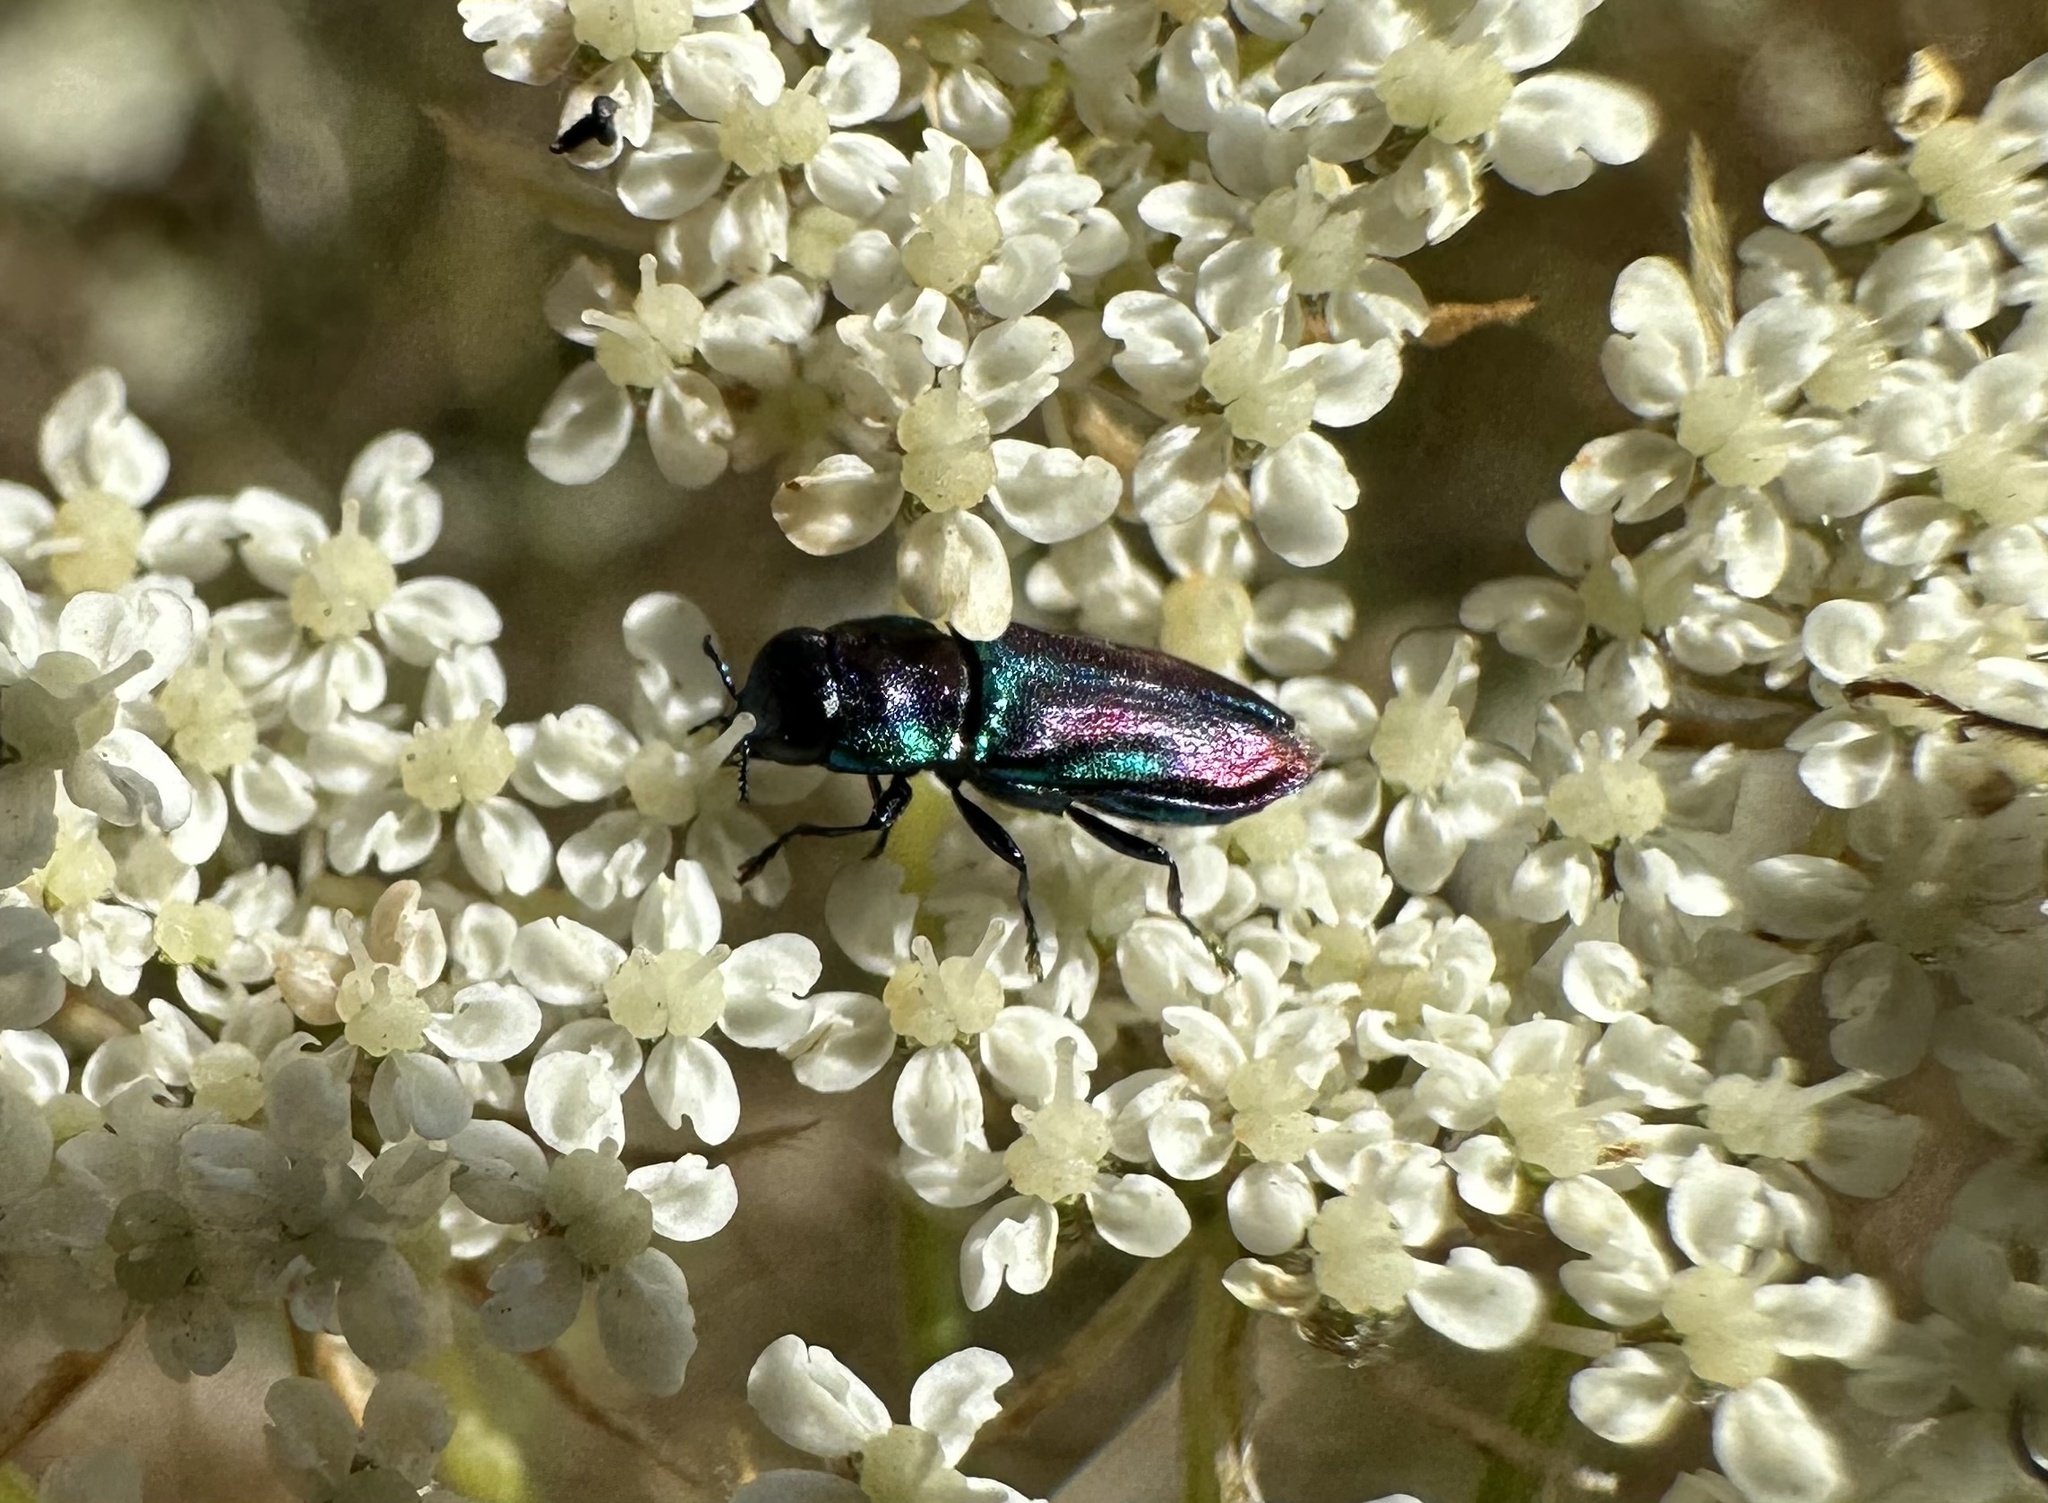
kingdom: Animalia
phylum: Arthropoda
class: Insecta
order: Coleoptera
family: Buprestidae
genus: Bilyaxia
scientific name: Bilyaxia concinna
